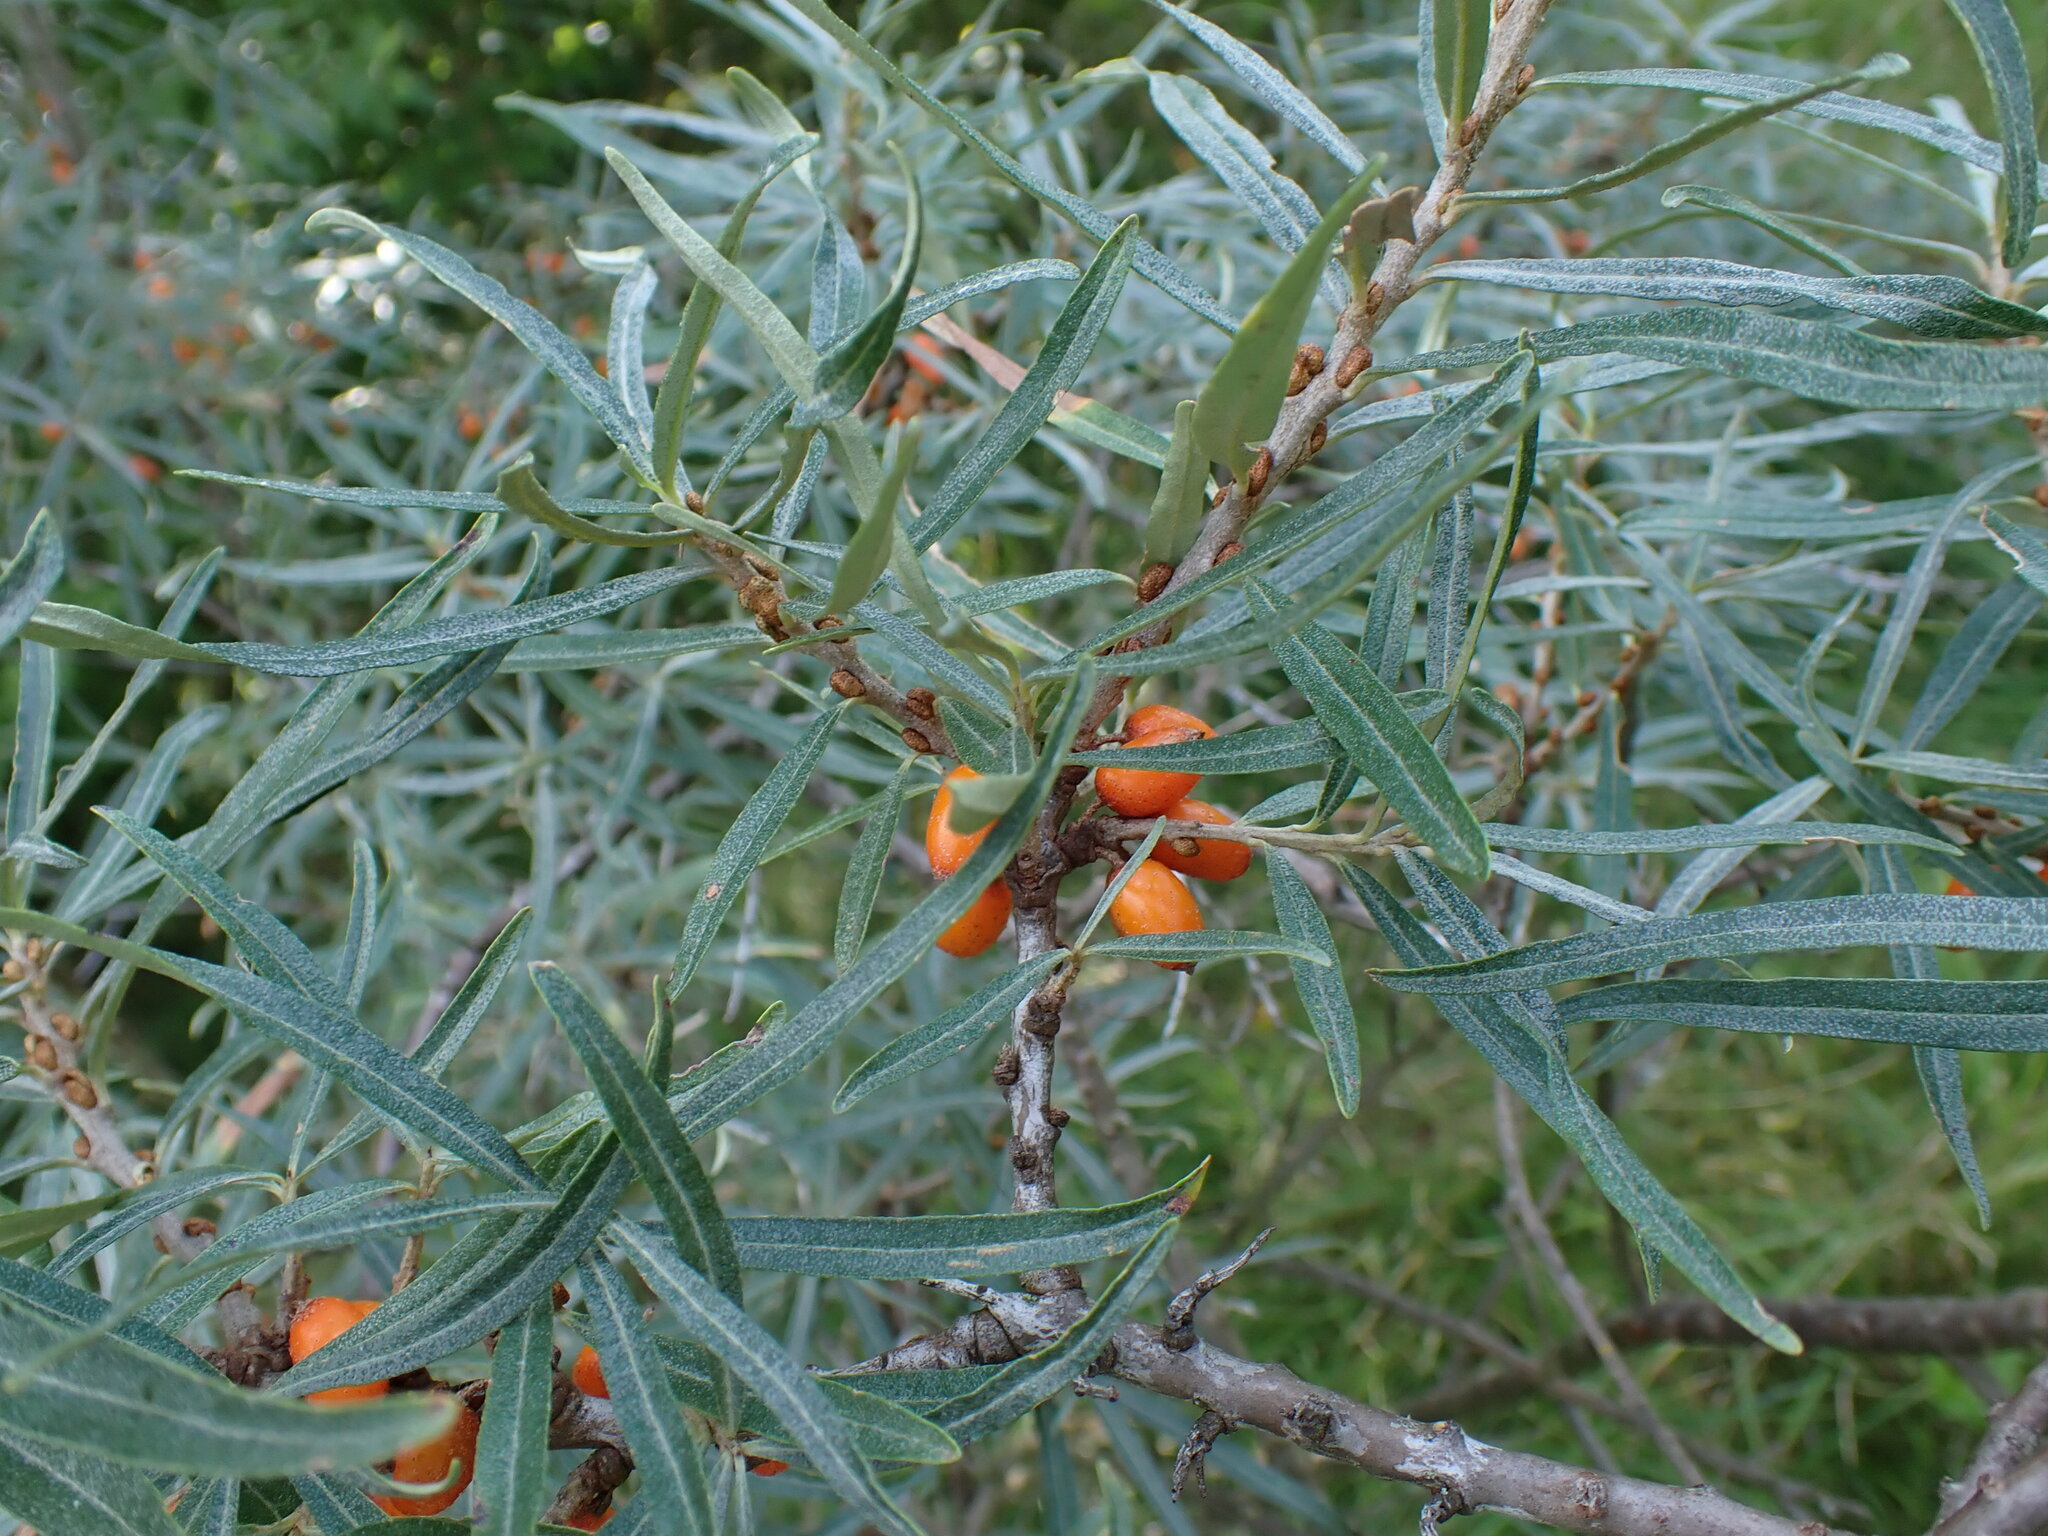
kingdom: Plantae
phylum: Tracheophyta
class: Magnoliopsida
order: Rosales
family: Elaeagnaceae
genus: Hippophae
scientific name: Hippophae rhamnoides
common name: Sea-buckthorn
